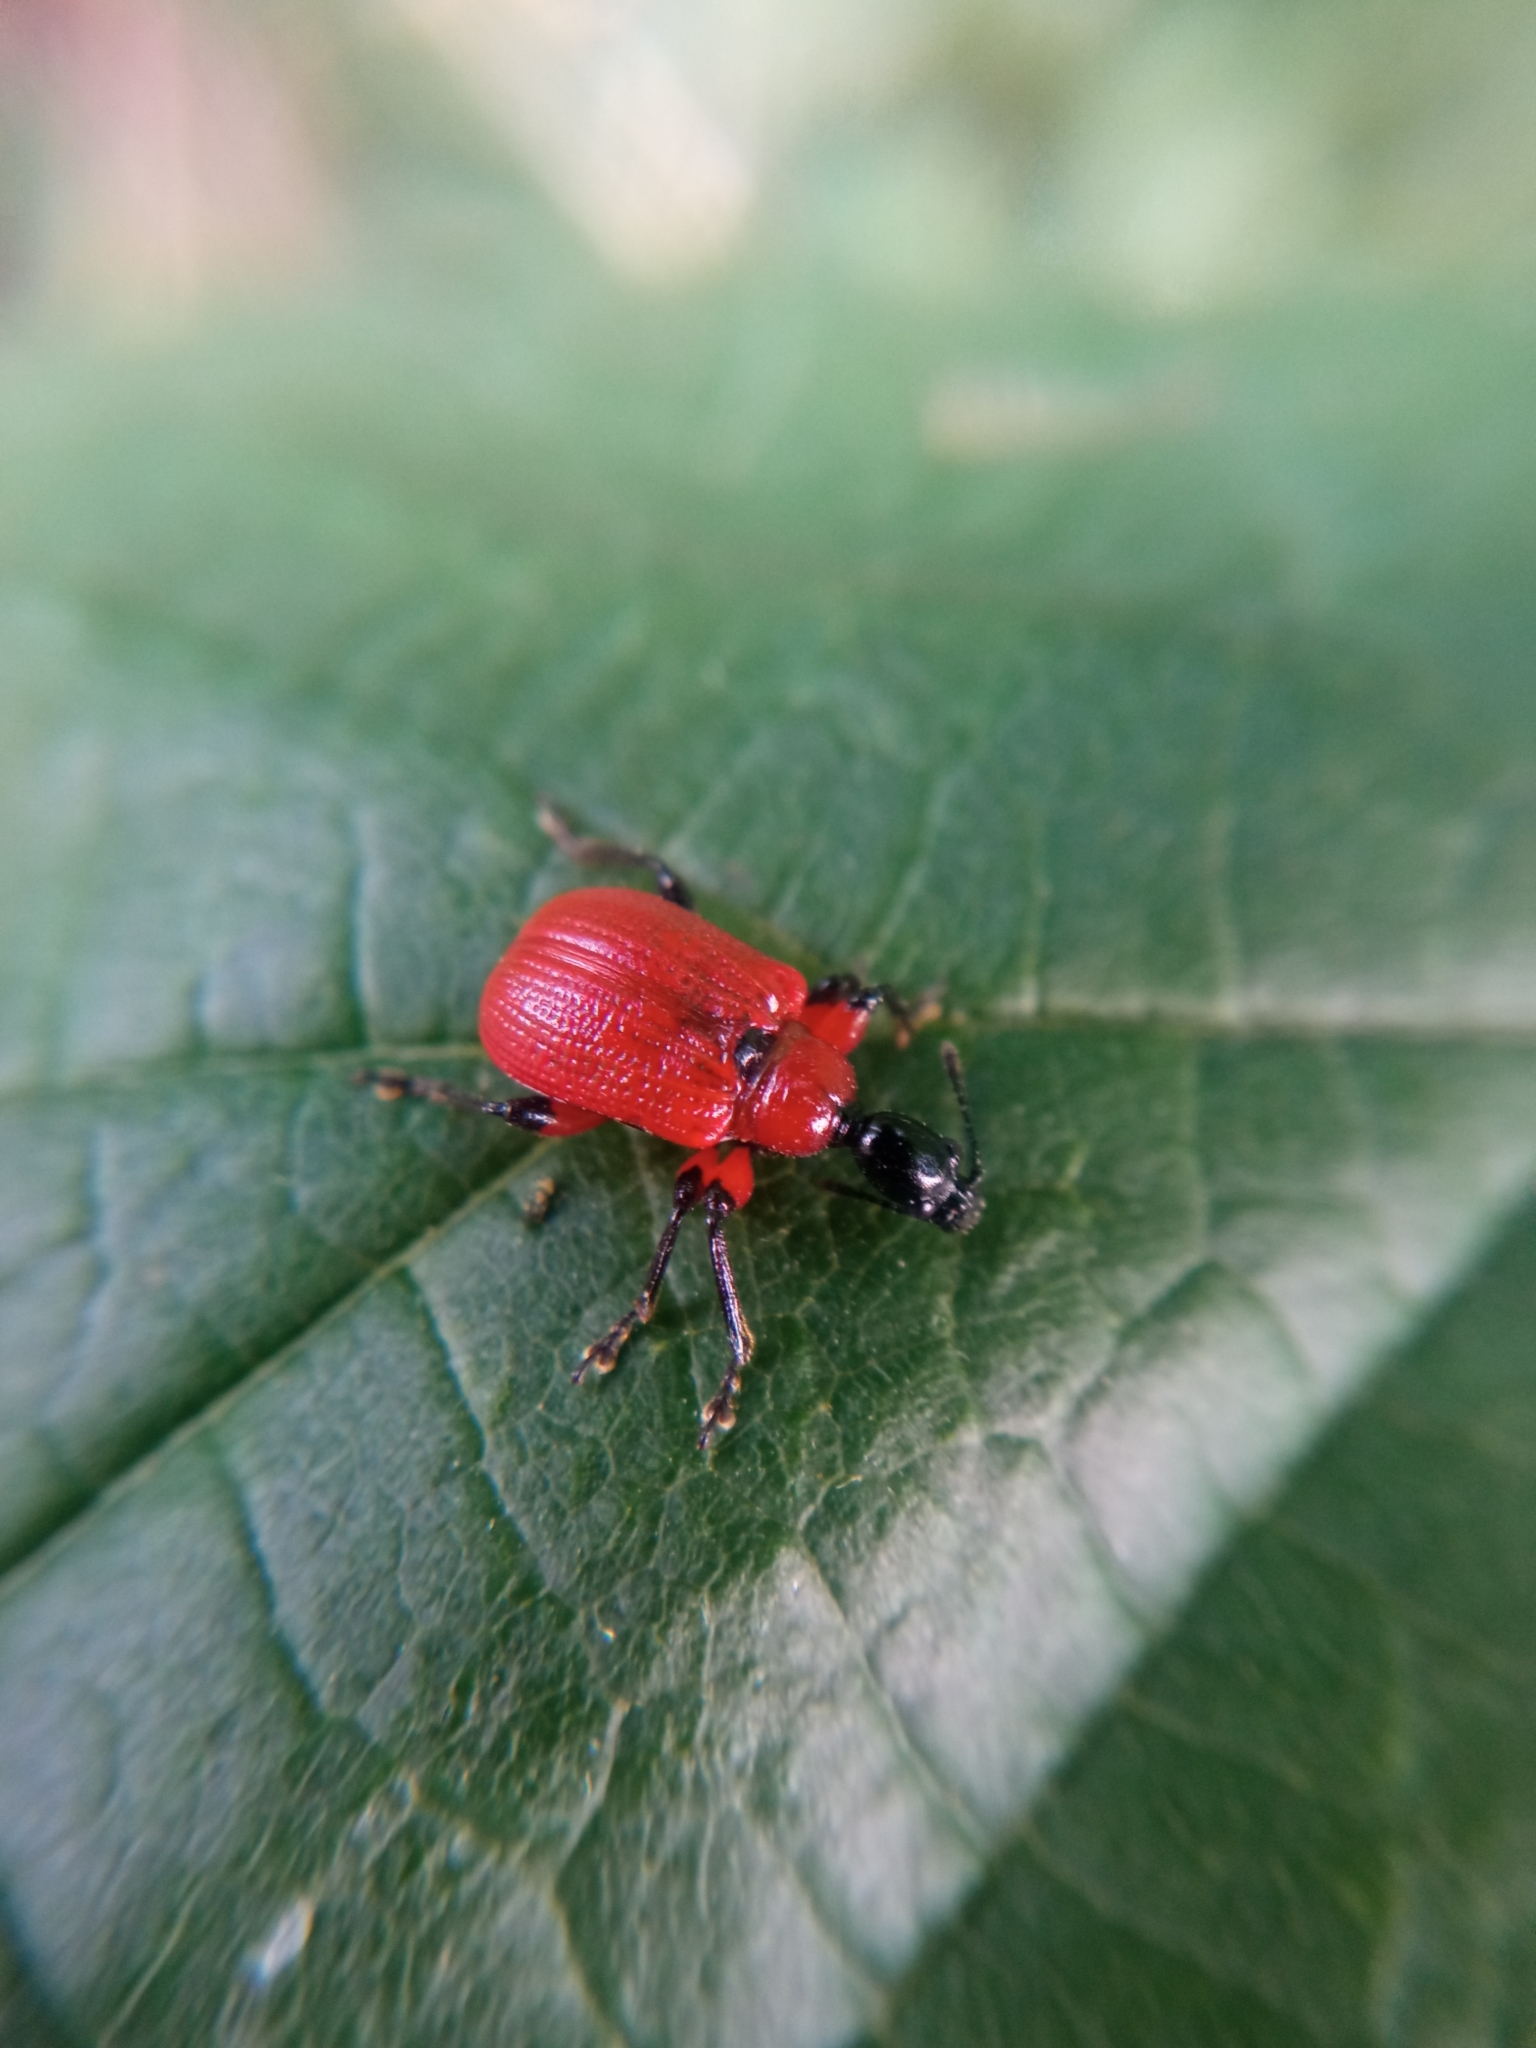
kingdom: Animalia
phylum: Arthropoda
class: Insecta
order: Coleoptera
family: Attelabidae
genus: Apoderus
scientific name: Apoderus coryli
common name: Hazel leaf roller
